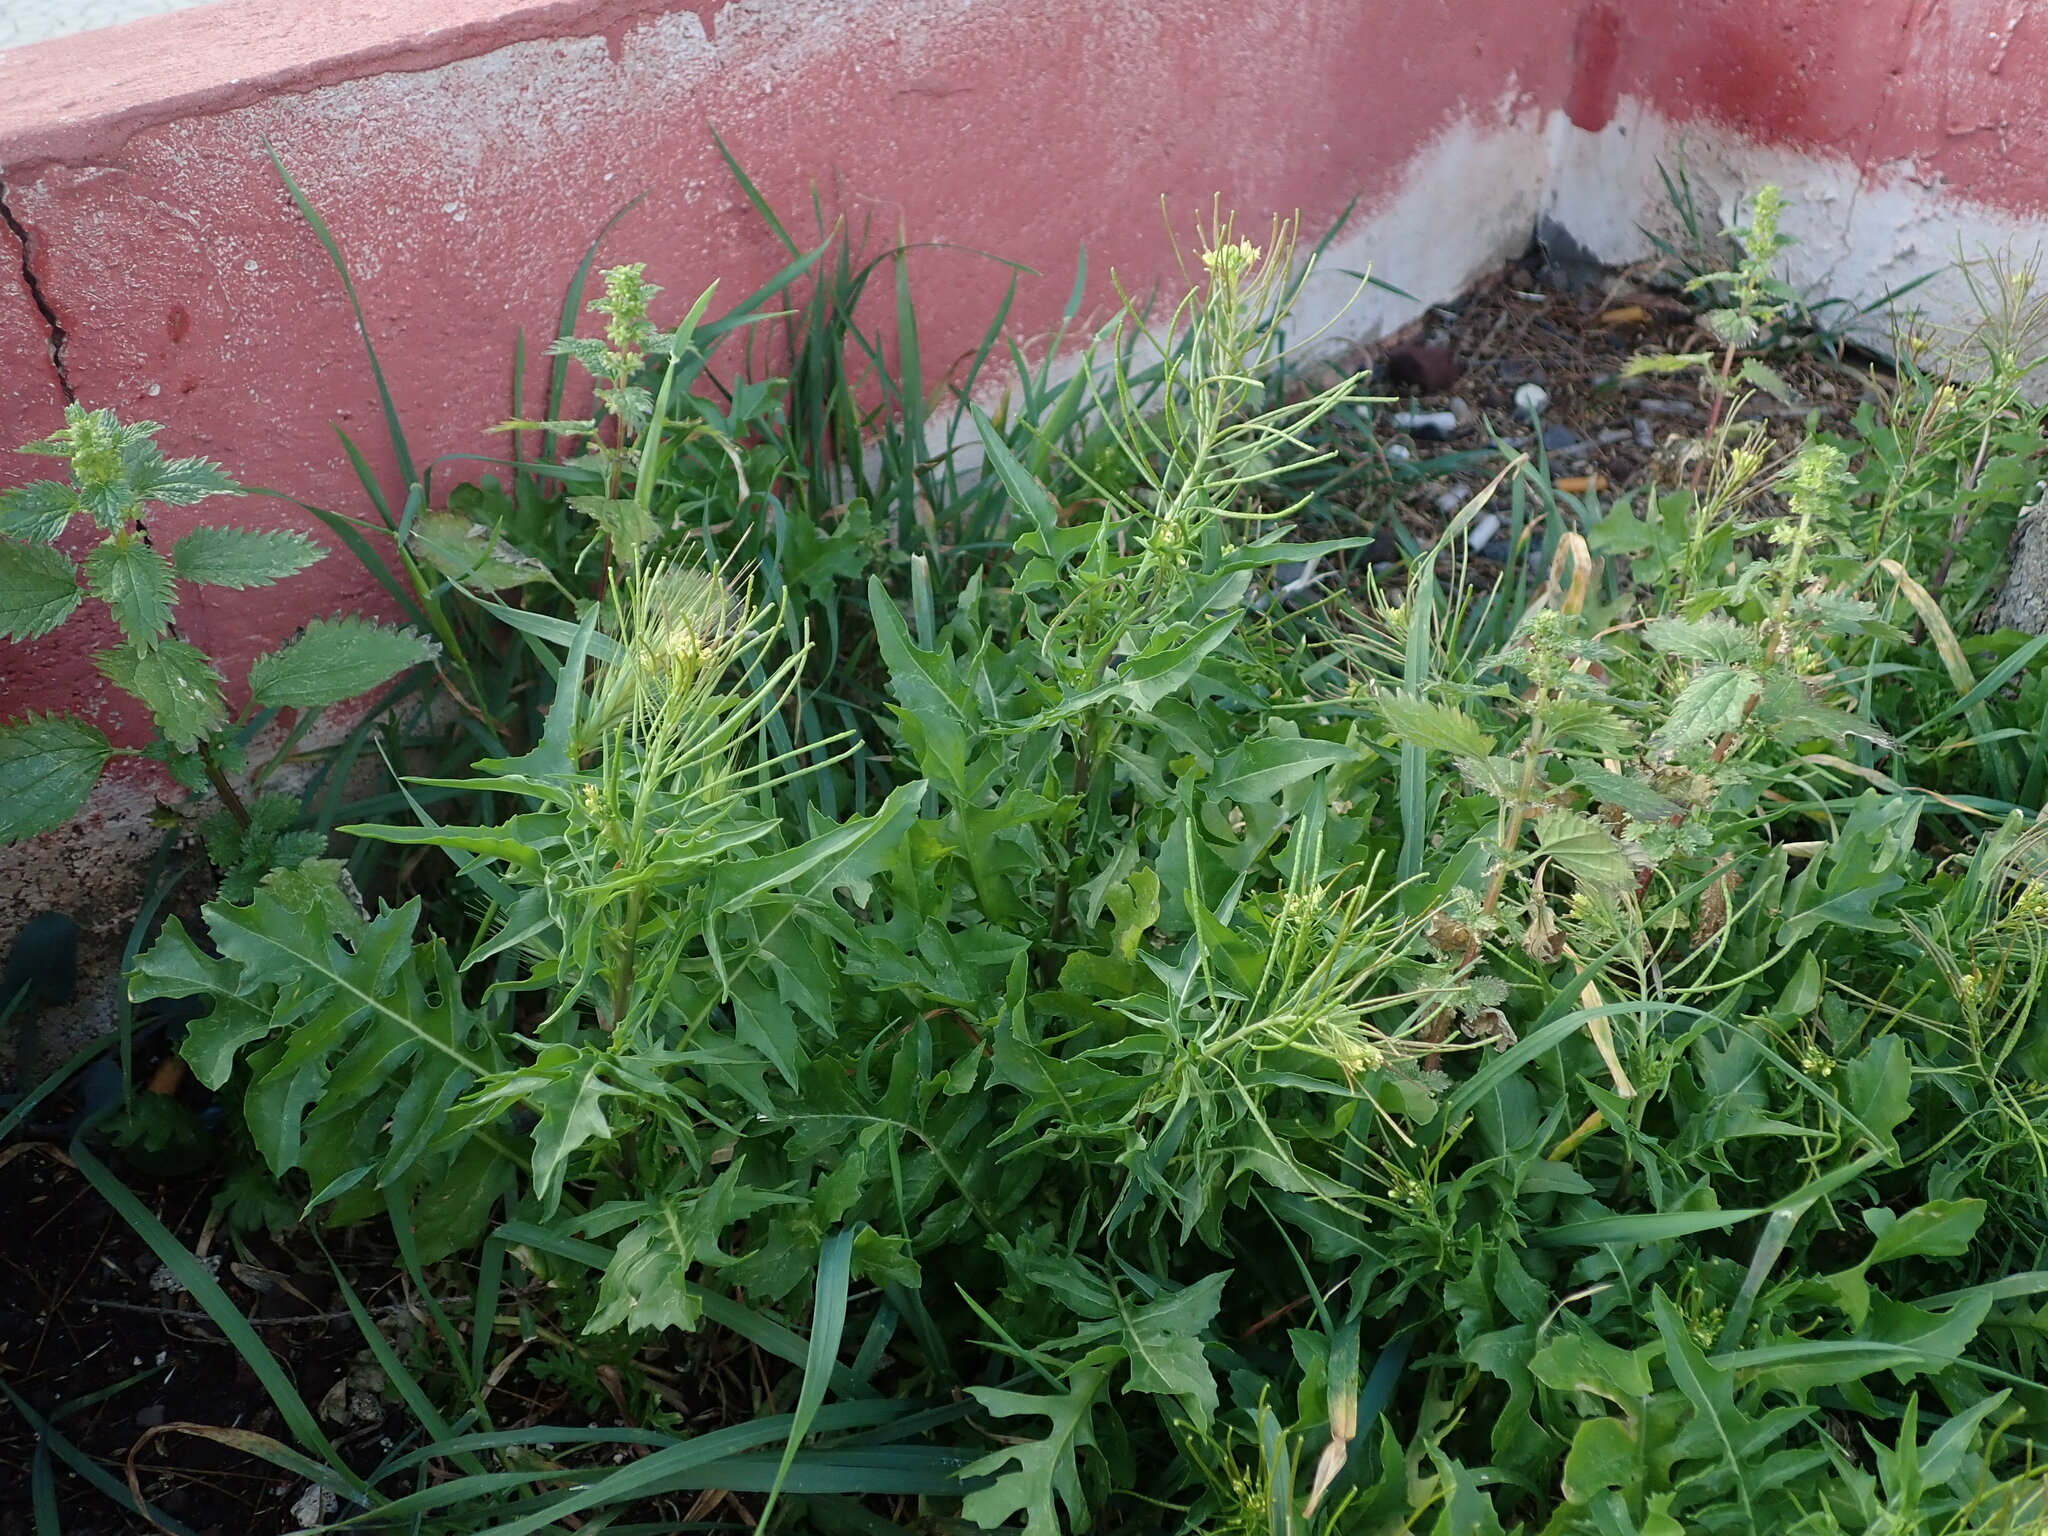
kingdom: Plantae
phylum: Tracheophyta
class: Magnoliopsida
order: Brassicales
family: Brassicaceae
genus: Sisymbrium
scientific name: Sisymbrium irio
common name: London rocket
